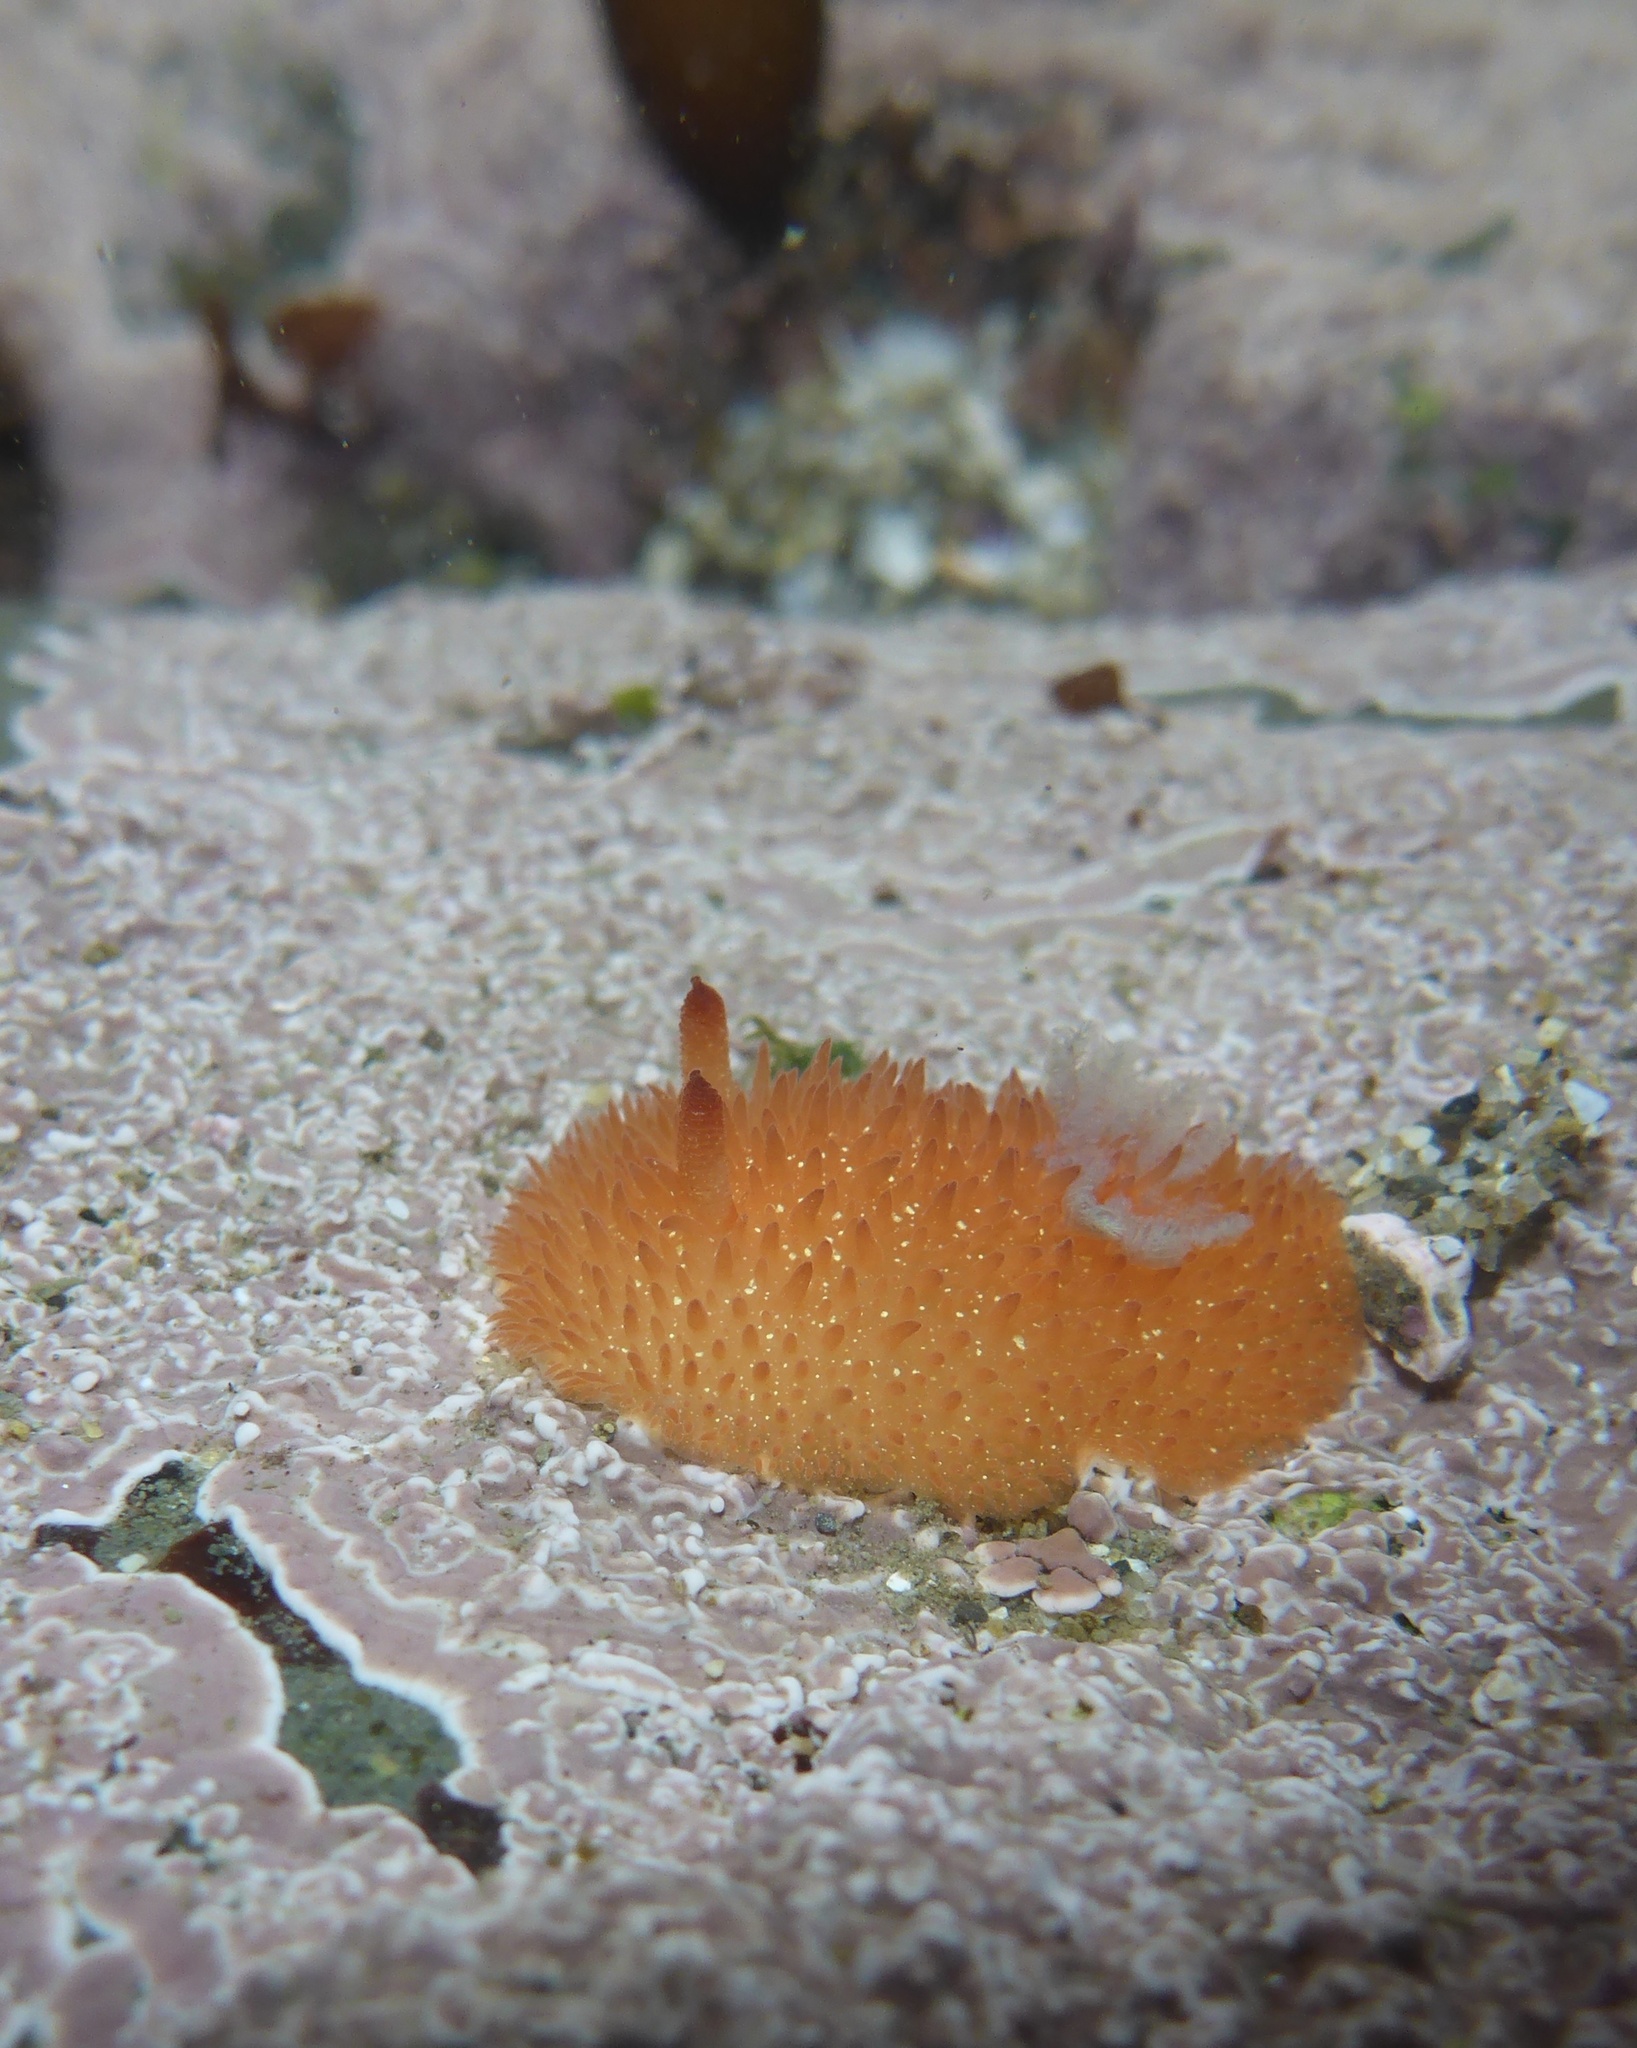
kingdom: Animalia
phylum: Mollusca
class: Gastropoda
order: Nudibranchia
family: Onchidorididae
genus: Acanthodoris
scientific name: Acanthodoris lutea
